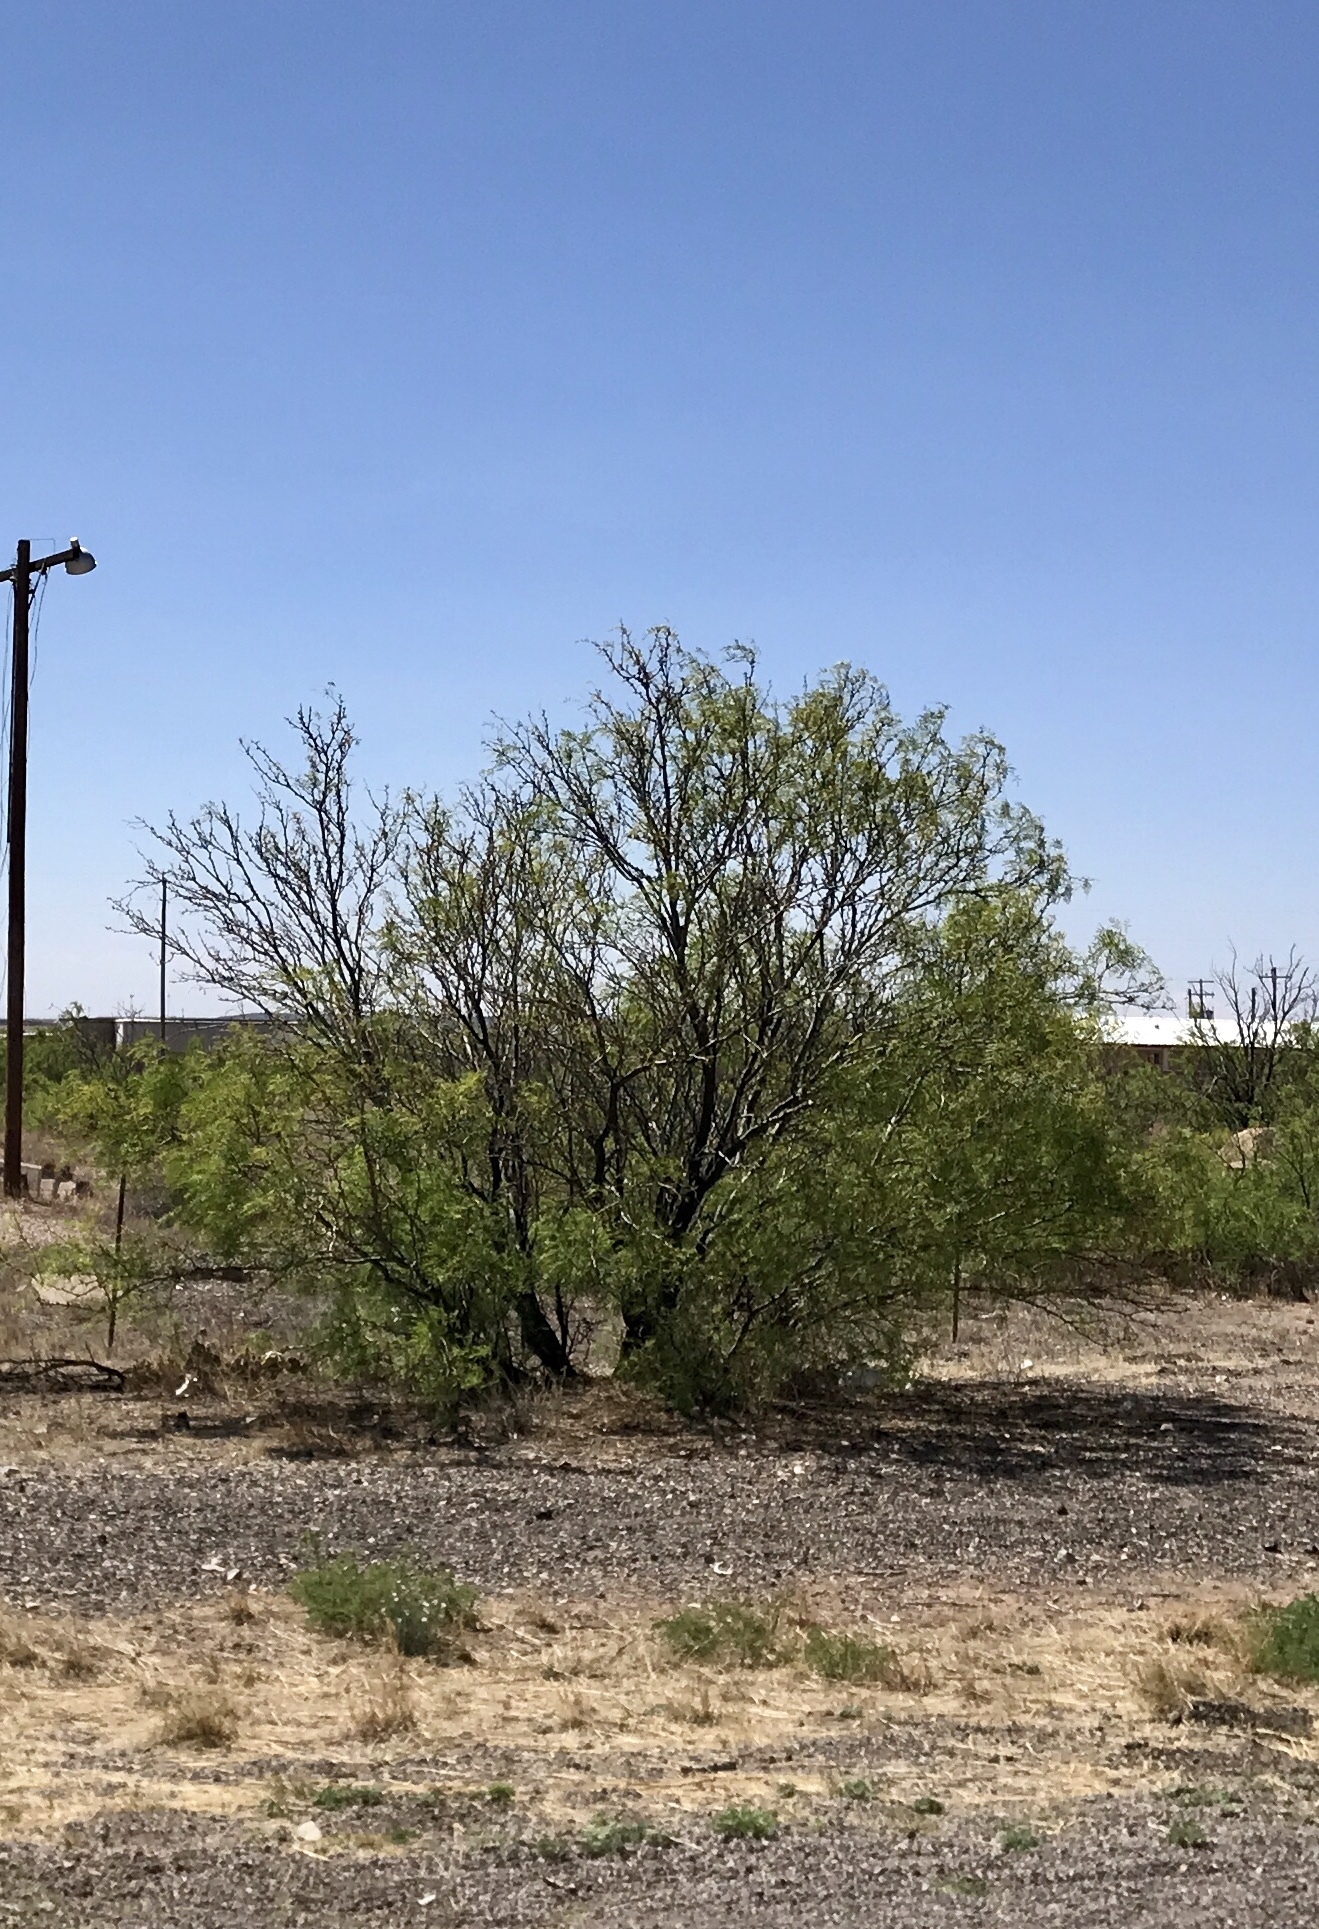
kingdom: Plantae
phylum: Tracheophyta
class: Magnoliopsida
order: Fabales
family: Fabaceae
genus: Prosopis
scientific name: Prosopis glandulosa
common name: Honey mesquite
